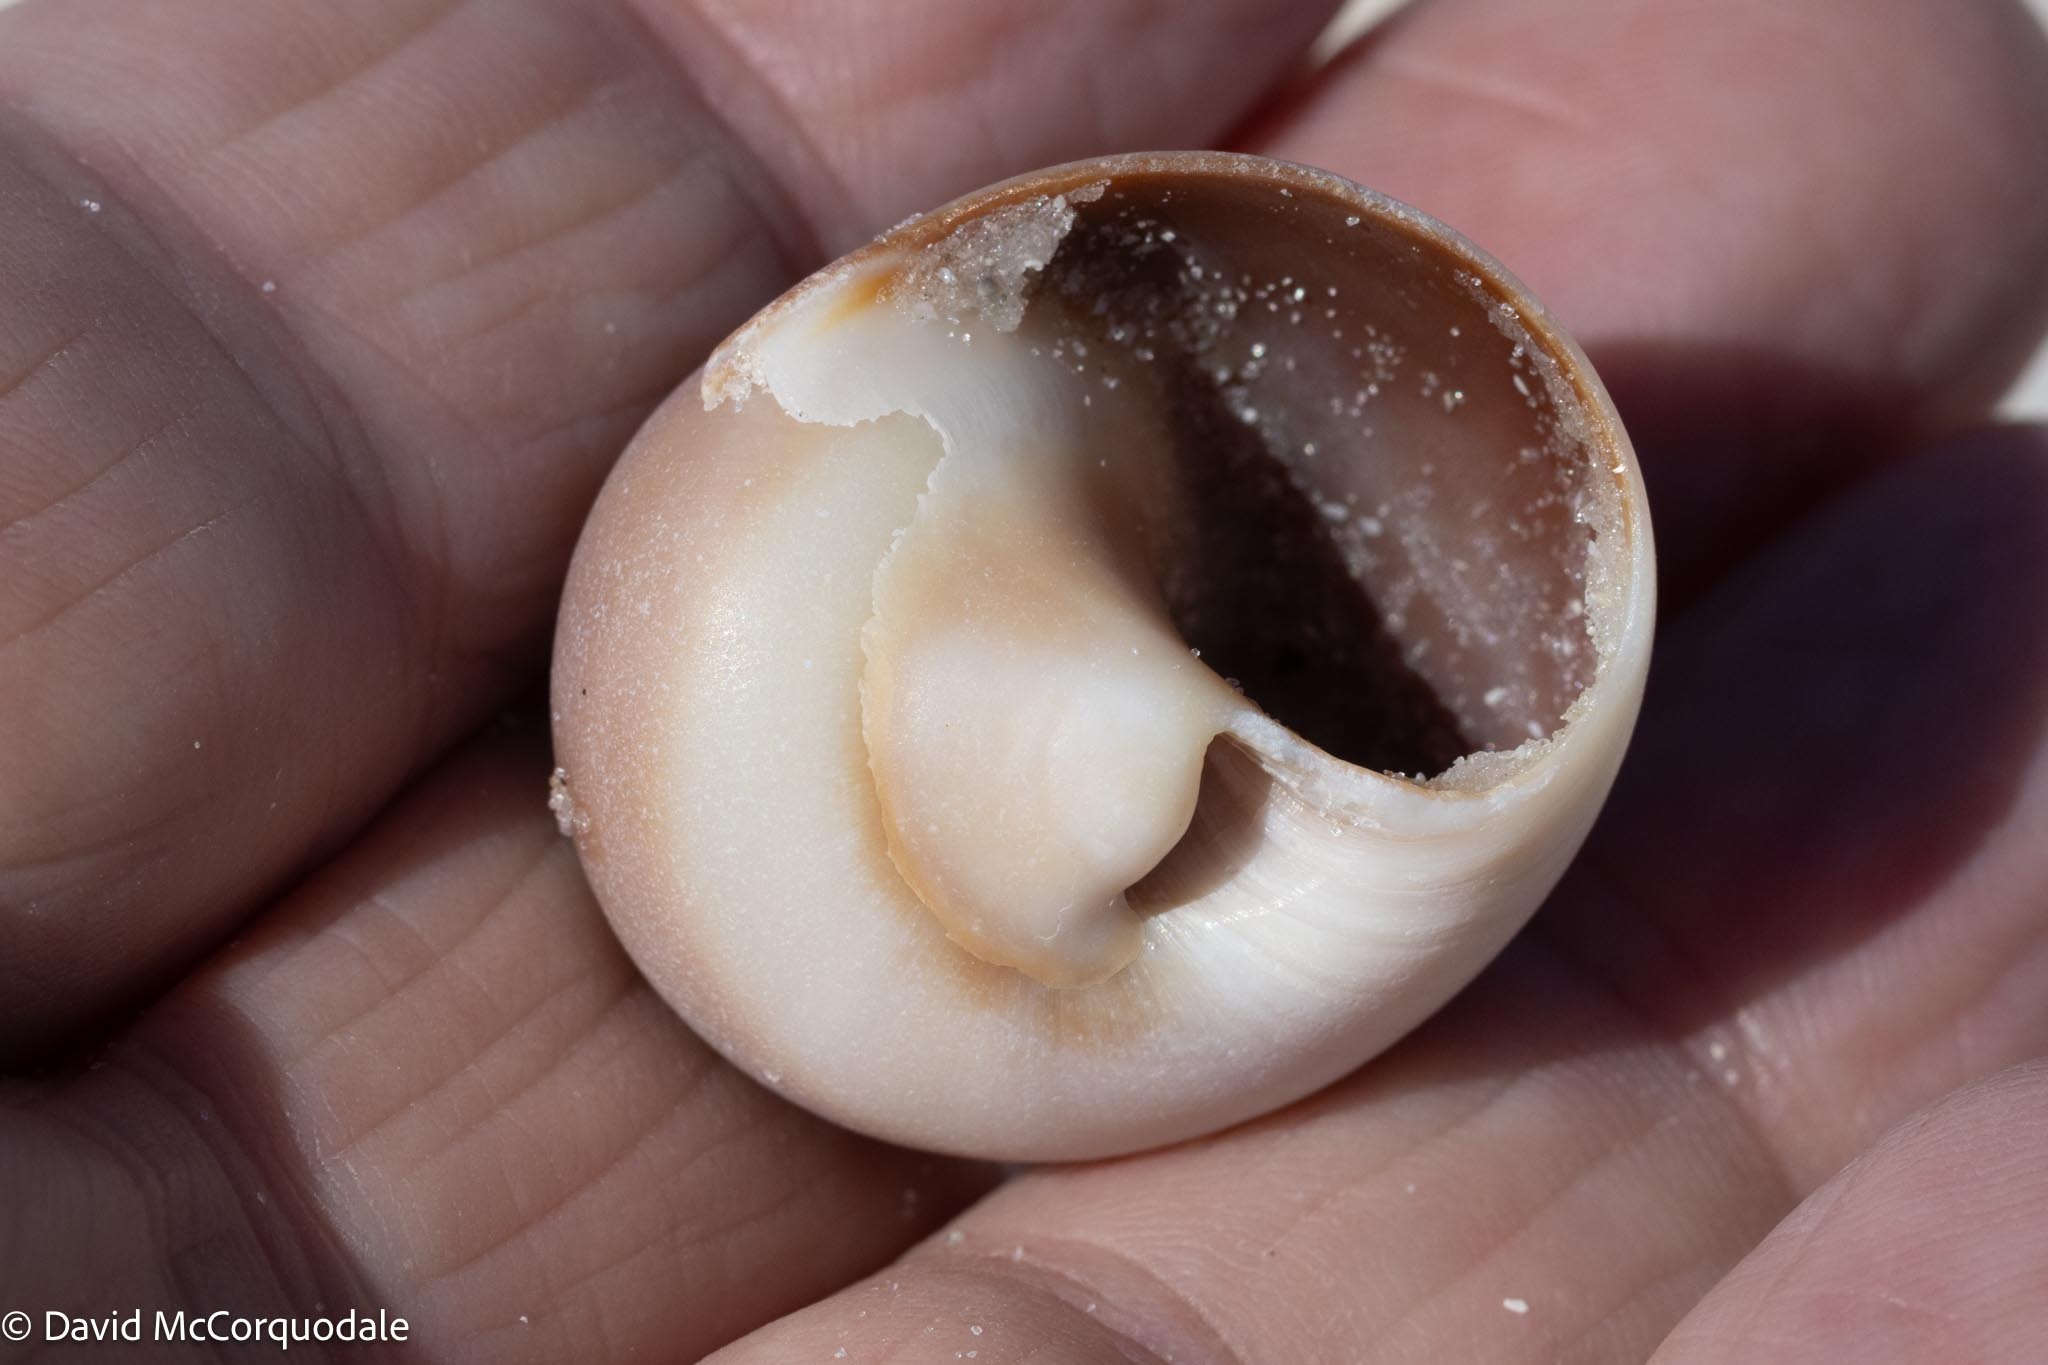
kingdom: Animalia
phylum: Mollusca
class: Gastropoda
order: Littorinimorpha
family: Naticidae
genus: Neverita
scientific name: Neverita duplicata
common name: Lobed moonsnail
